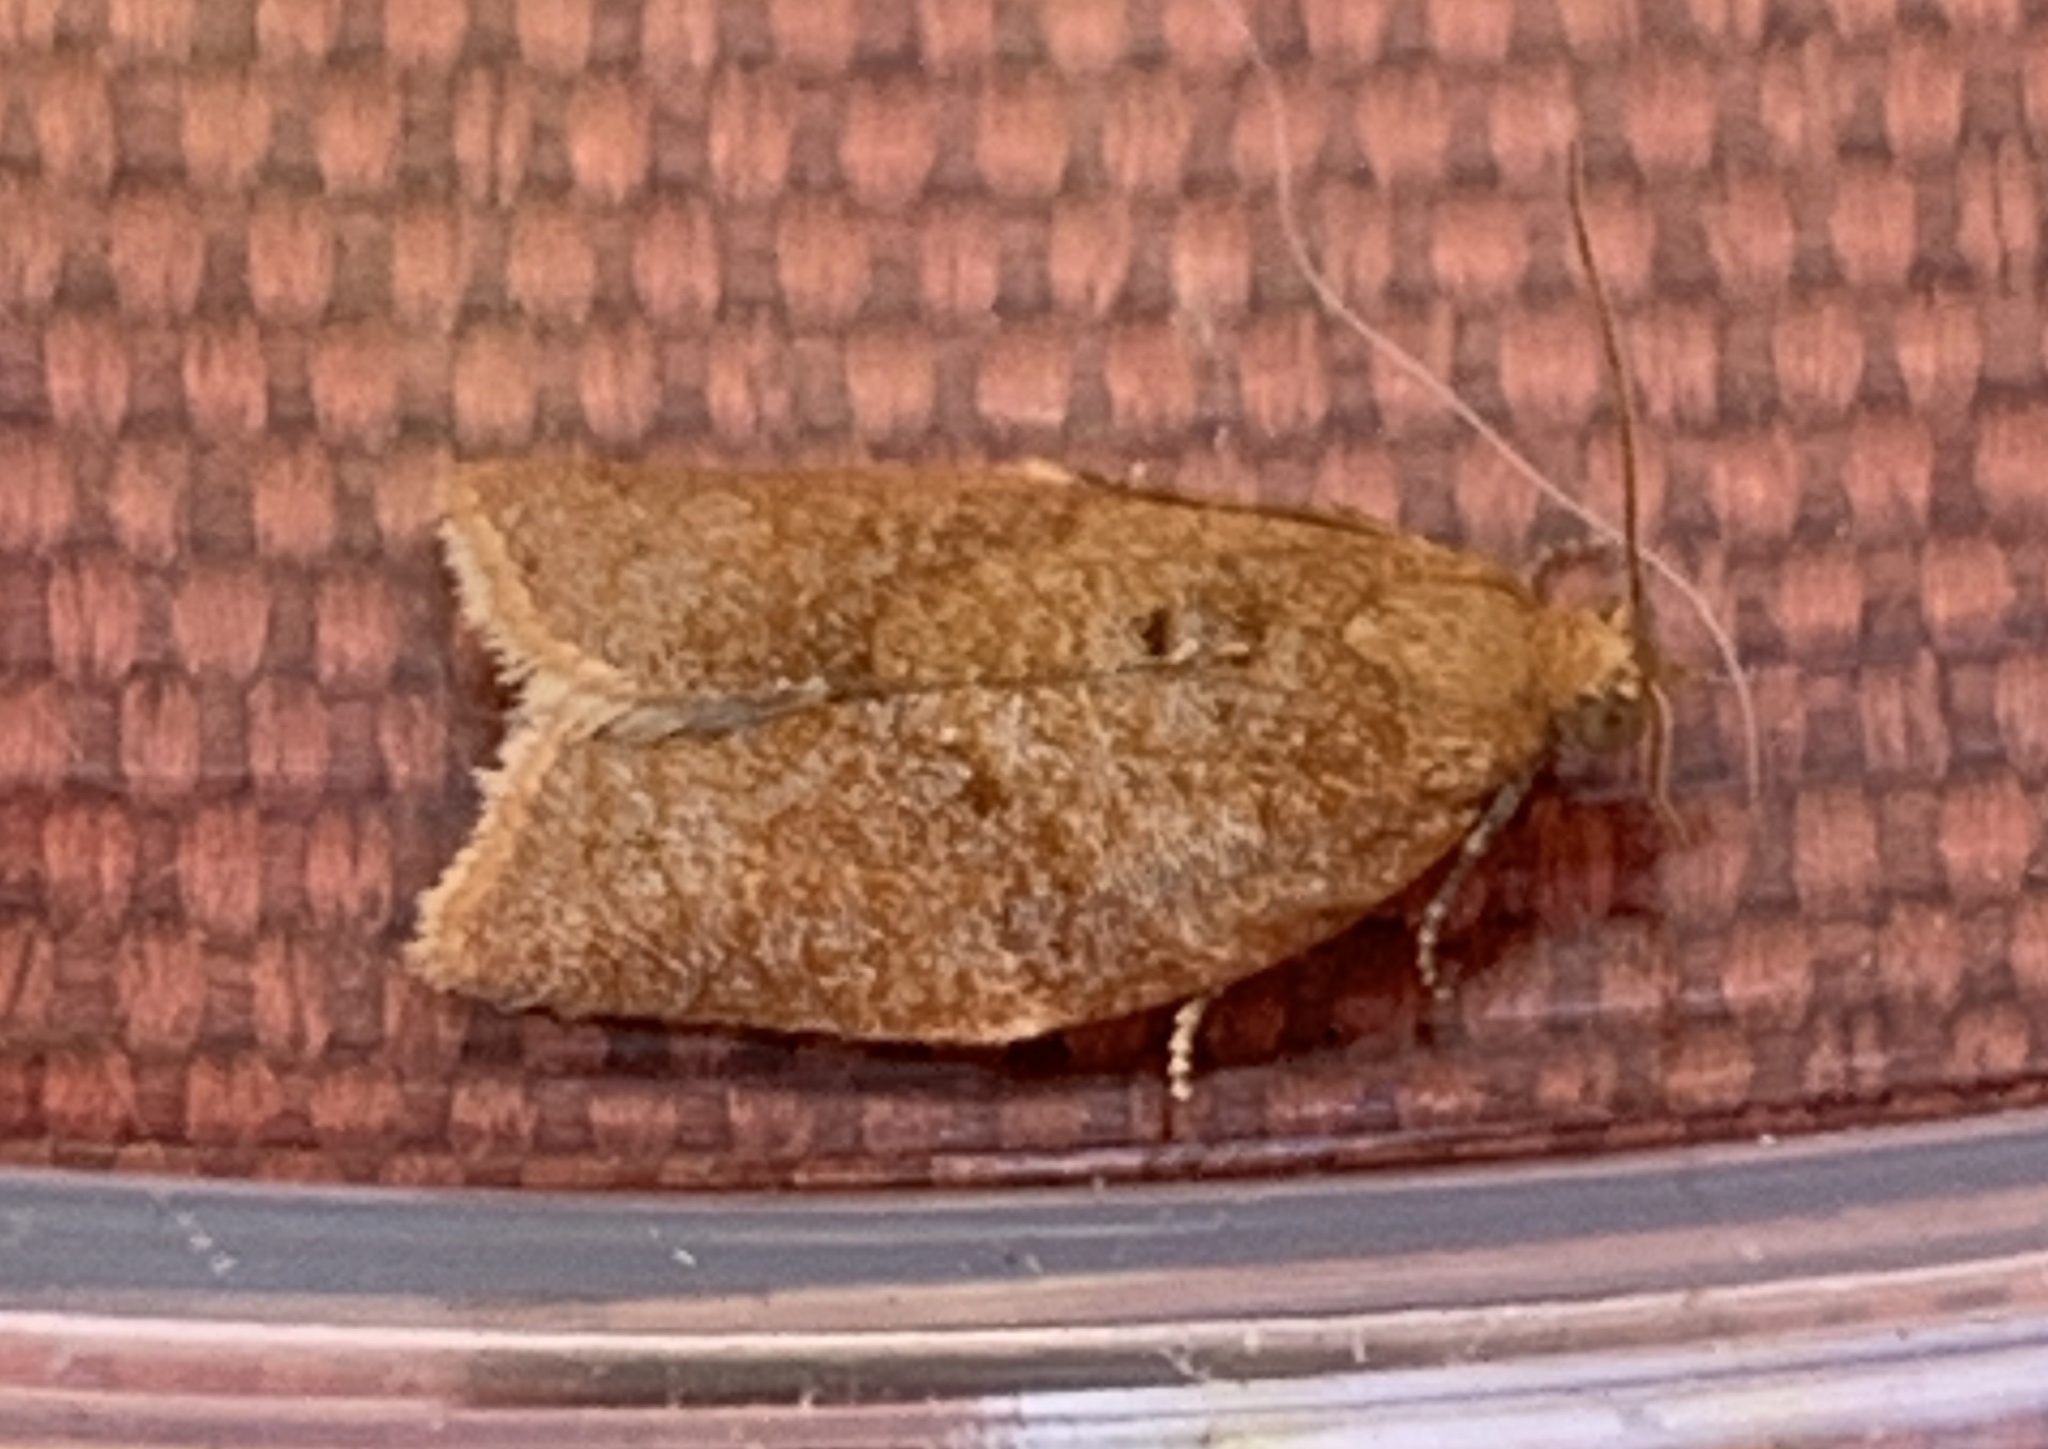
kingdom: Animalia
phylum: Arthropoda
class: Insecta
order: Lepidoptera
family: Tortricidae
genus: Clepsis
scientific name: Clepsis consimilana
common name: Privet tortrix
